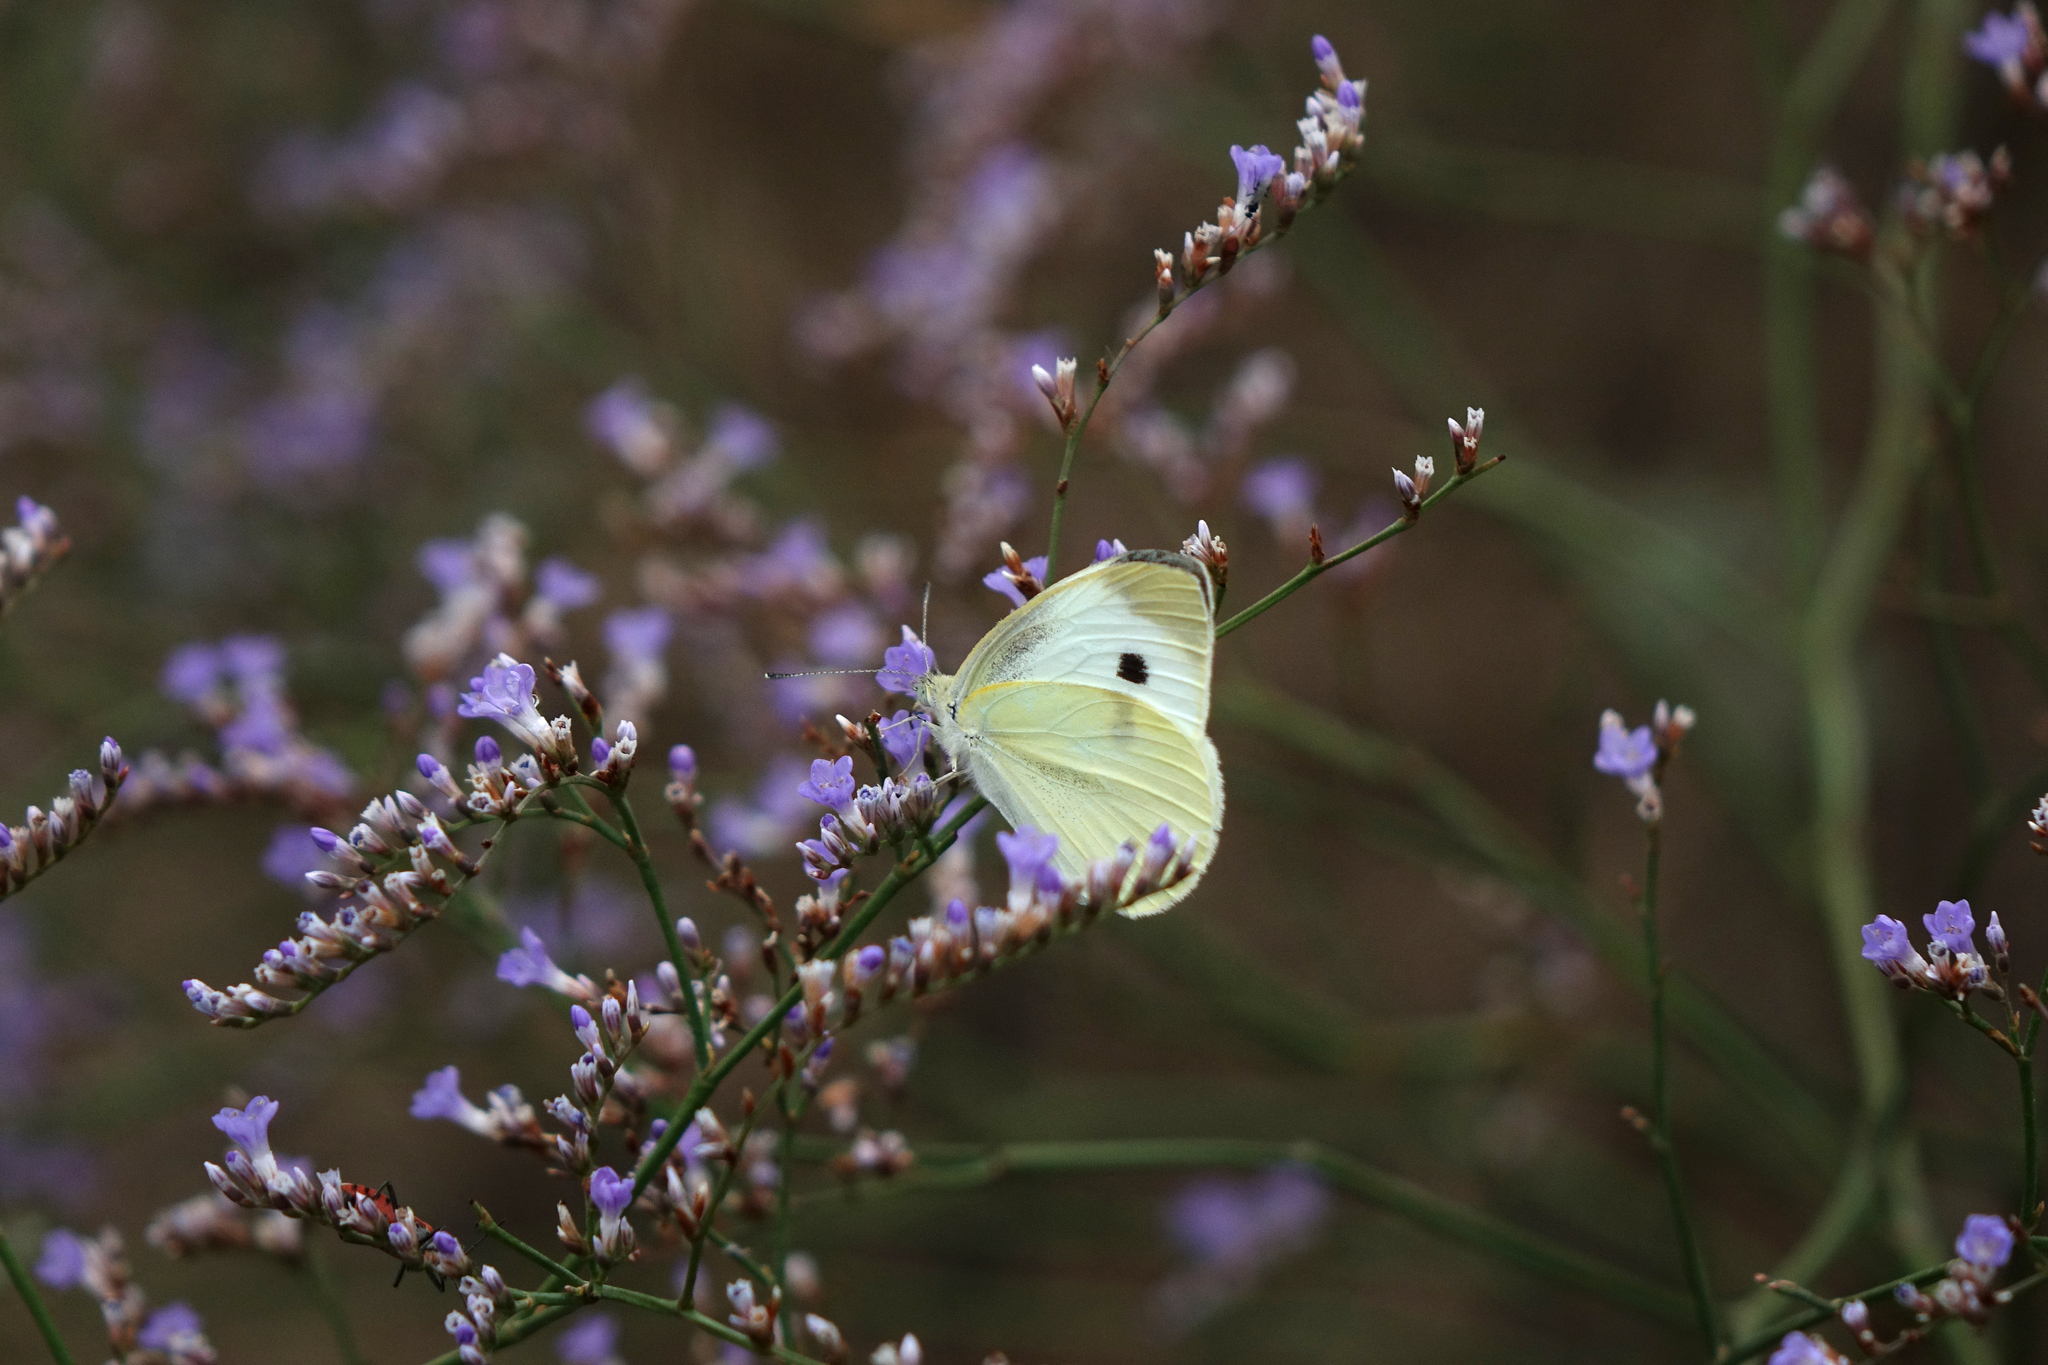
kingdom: Animalia
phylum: Arthropoda
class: Insecta
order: Lepidoptera
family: Pieridae
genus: Pieris
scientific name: Pieris rapae
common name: Small white
